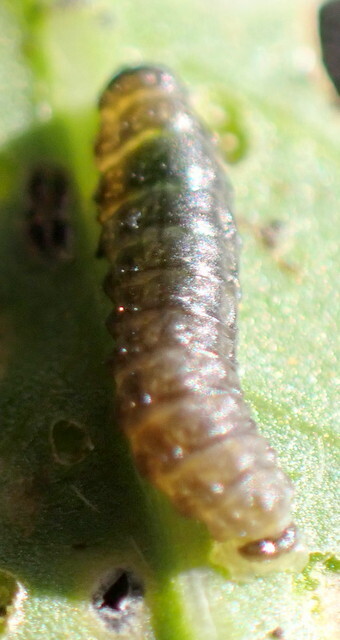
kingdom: Animalia
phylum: Arthropoda
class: Insecta
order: Coleoptera
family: Chrysomelidae
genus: Agasicles
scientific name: Agasicles hygrophila
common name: Alligatorweed flea beetle
